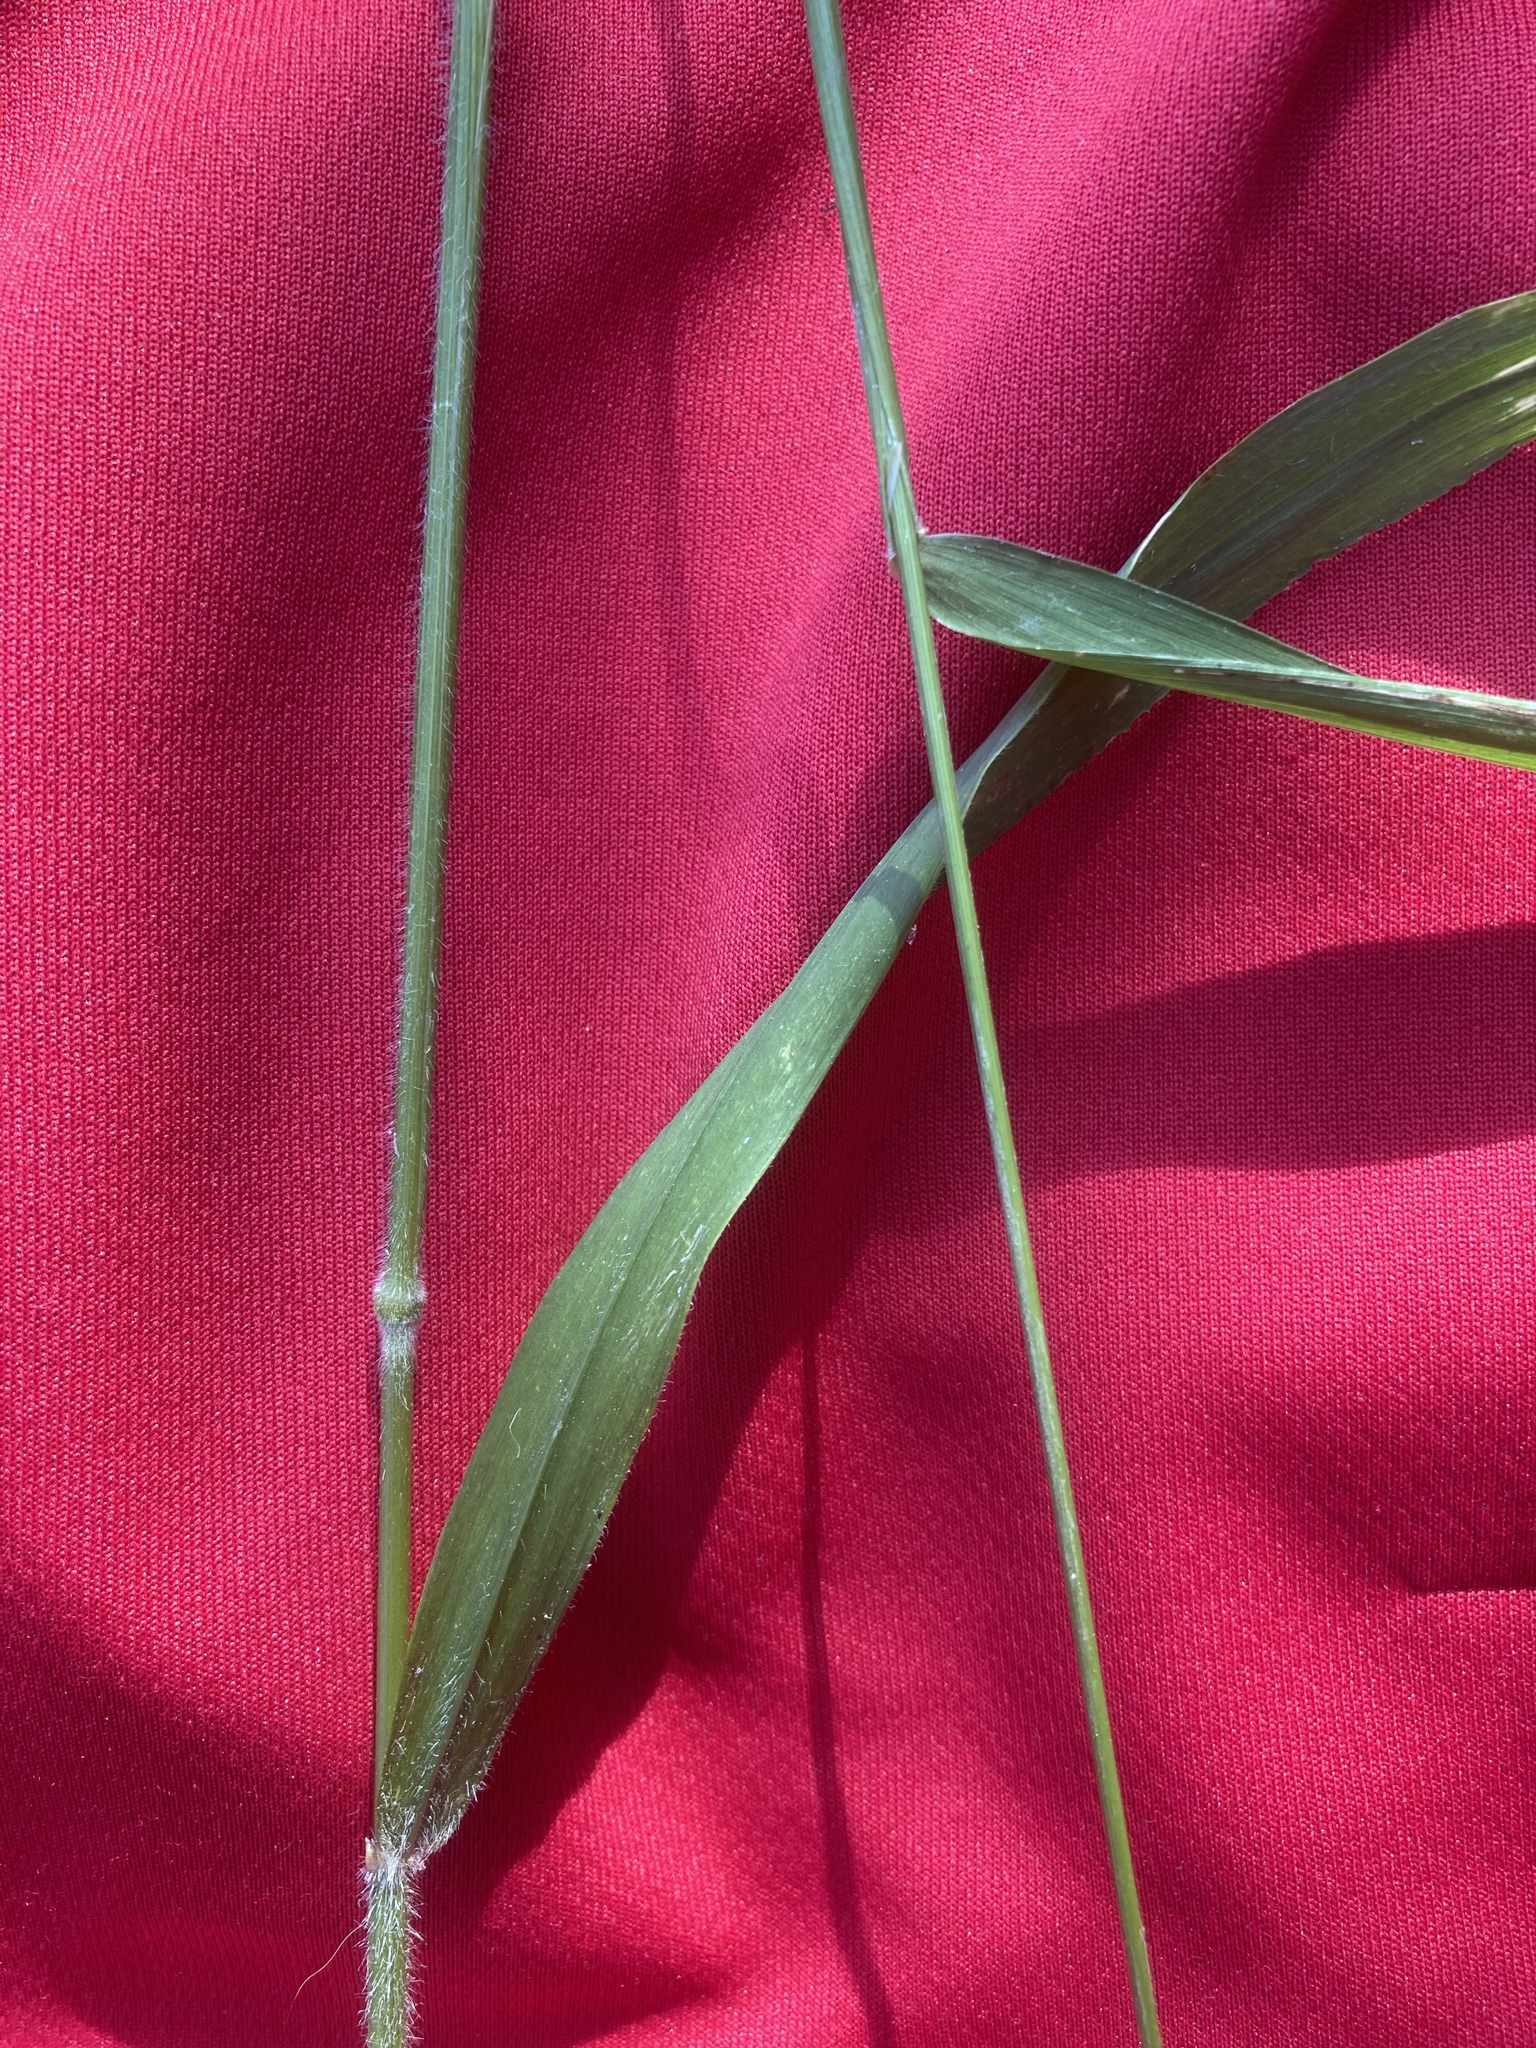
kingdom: Plantae
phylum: Tracheophyta
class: Liliopsida
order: Poales
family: Poaceae
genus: Hordelymus
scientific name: Hordelymus europaeus
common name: Wood-barley
